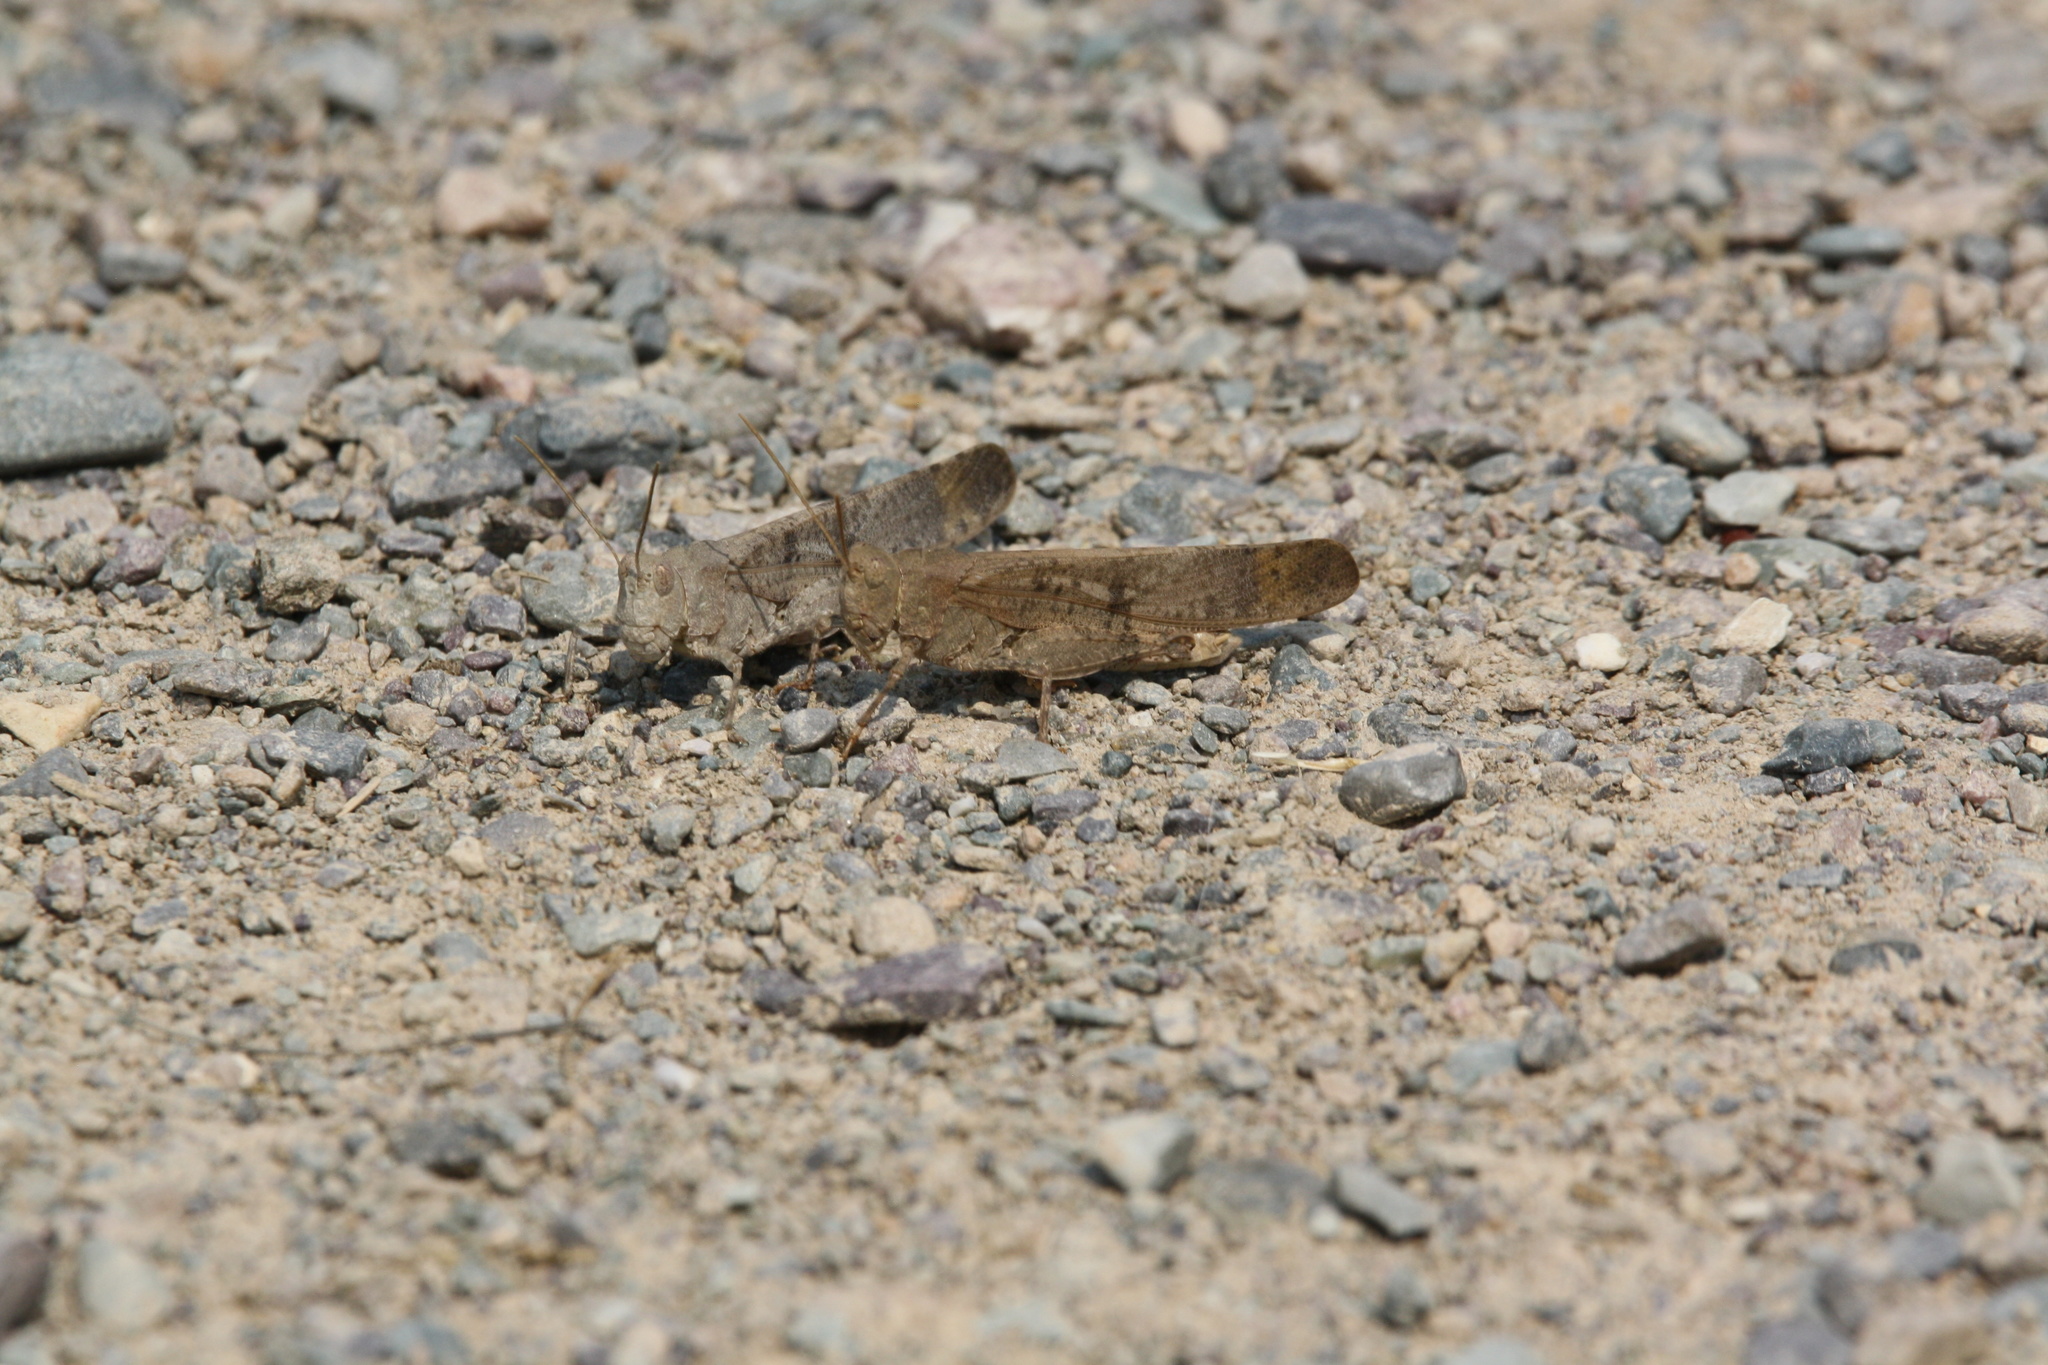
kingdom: Animalia
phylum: Arthropoda
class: Insecta
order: Orthoptera
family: Acrididae
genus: Dissosteira
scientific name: Dissosteira carolina
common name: Carolina grasshopper
